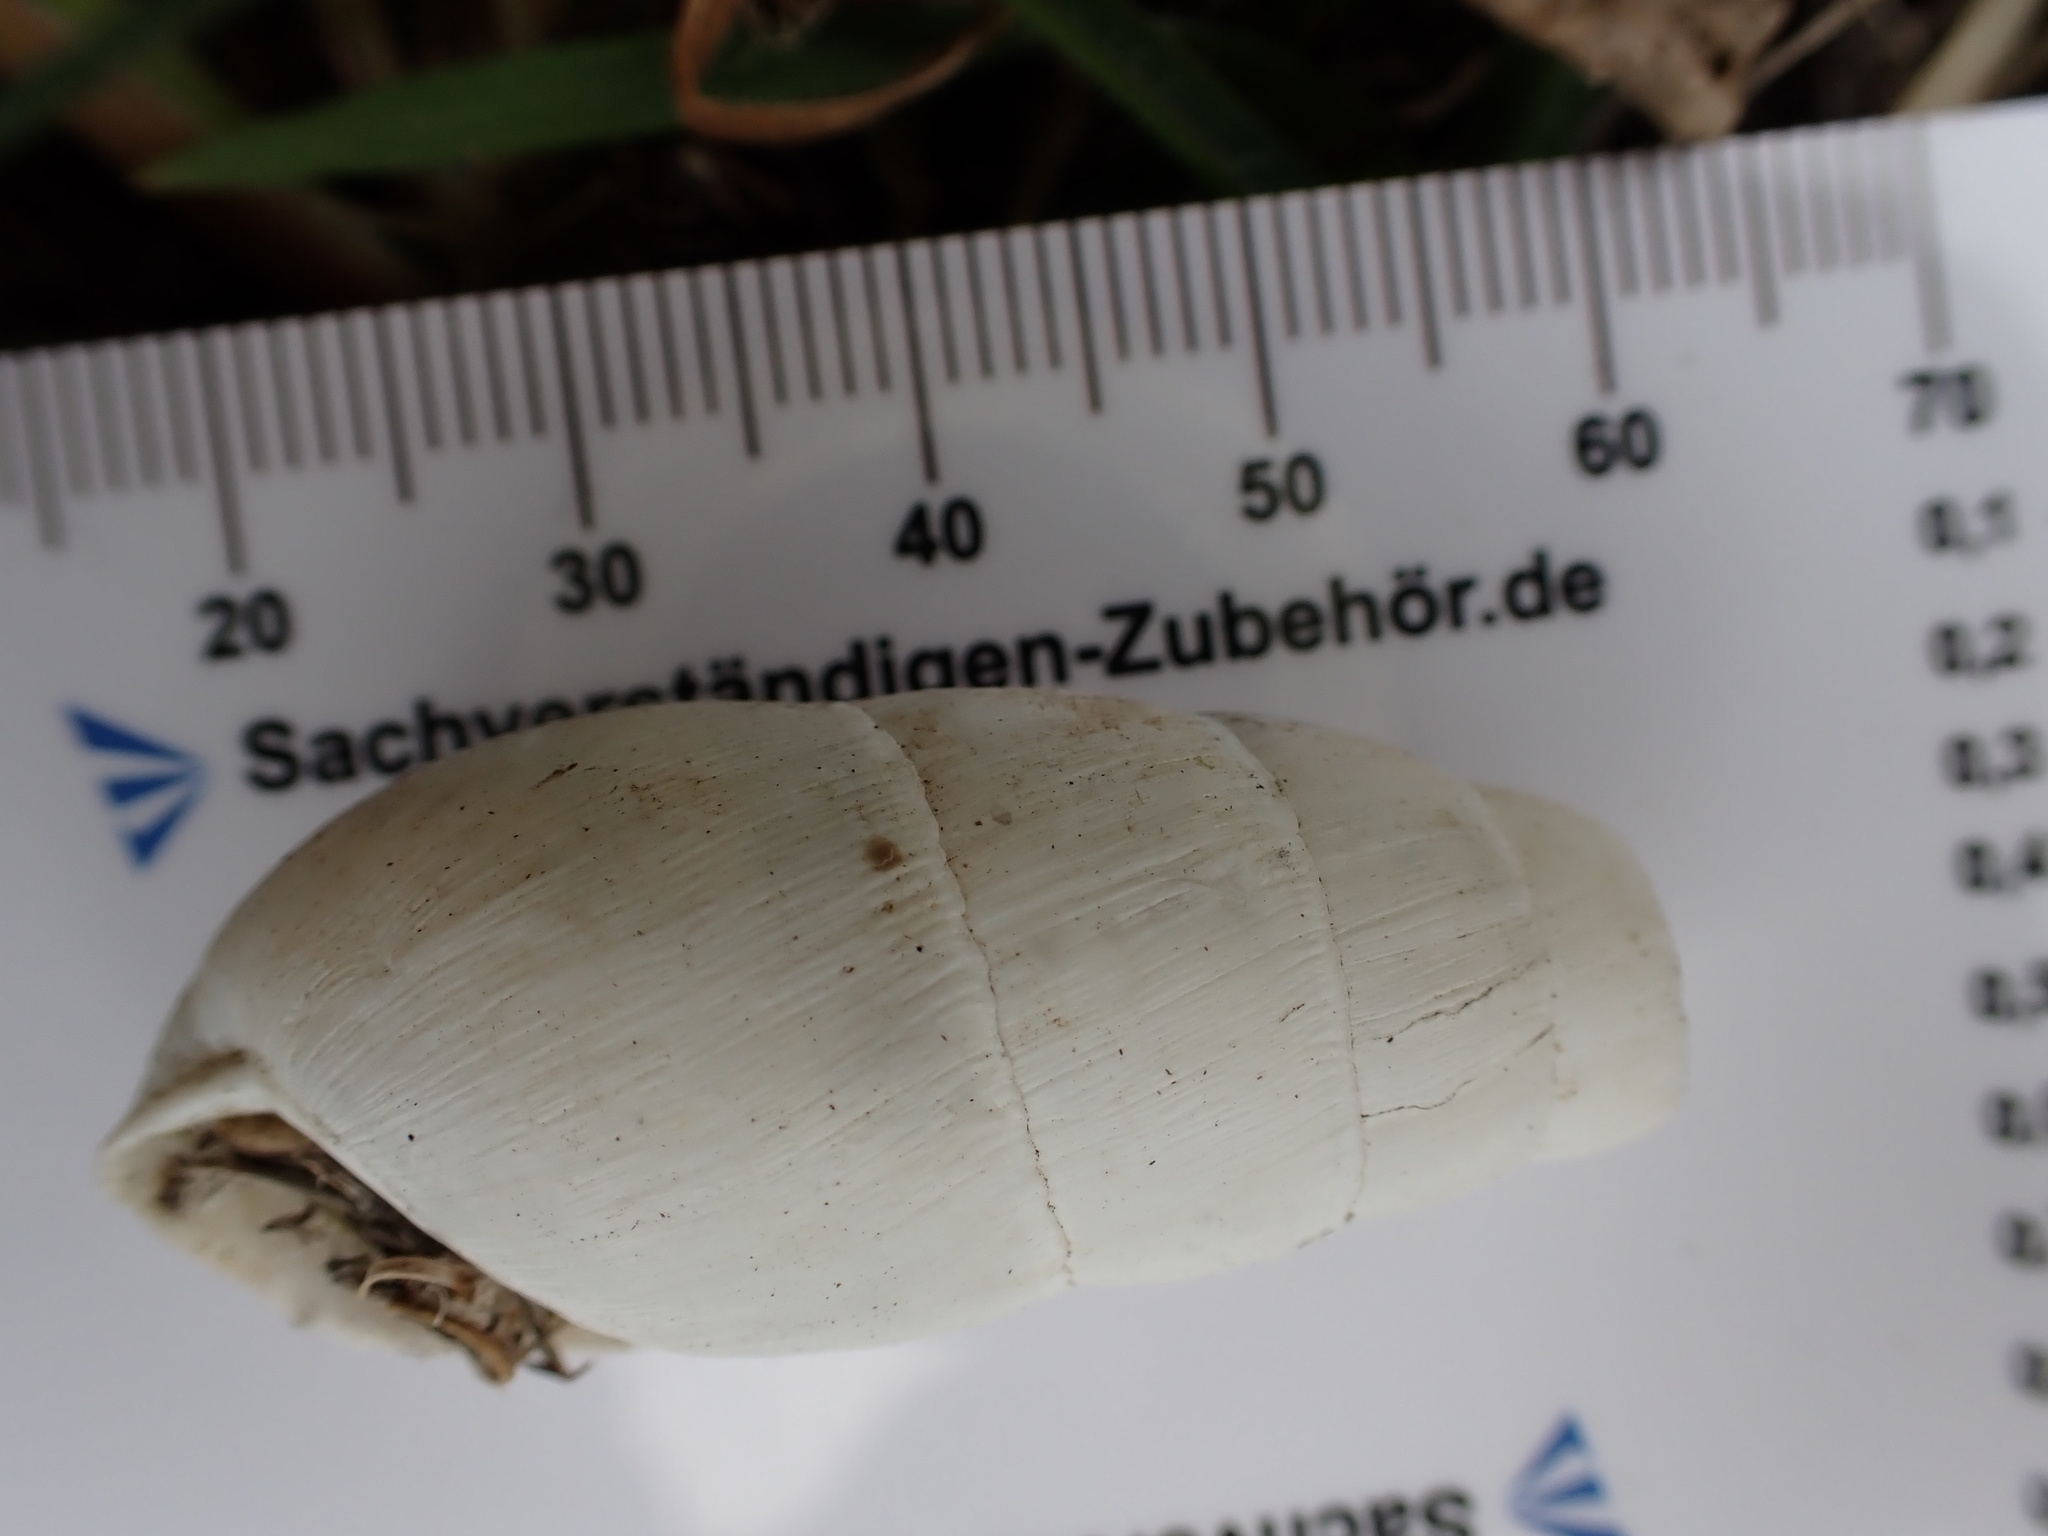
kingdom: Animalia
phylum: Mollusca
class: Gastropoda
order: Stylommatophora
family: Achatinidae
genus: Rumina
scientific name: Rumina decollata
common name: Decollate snail
